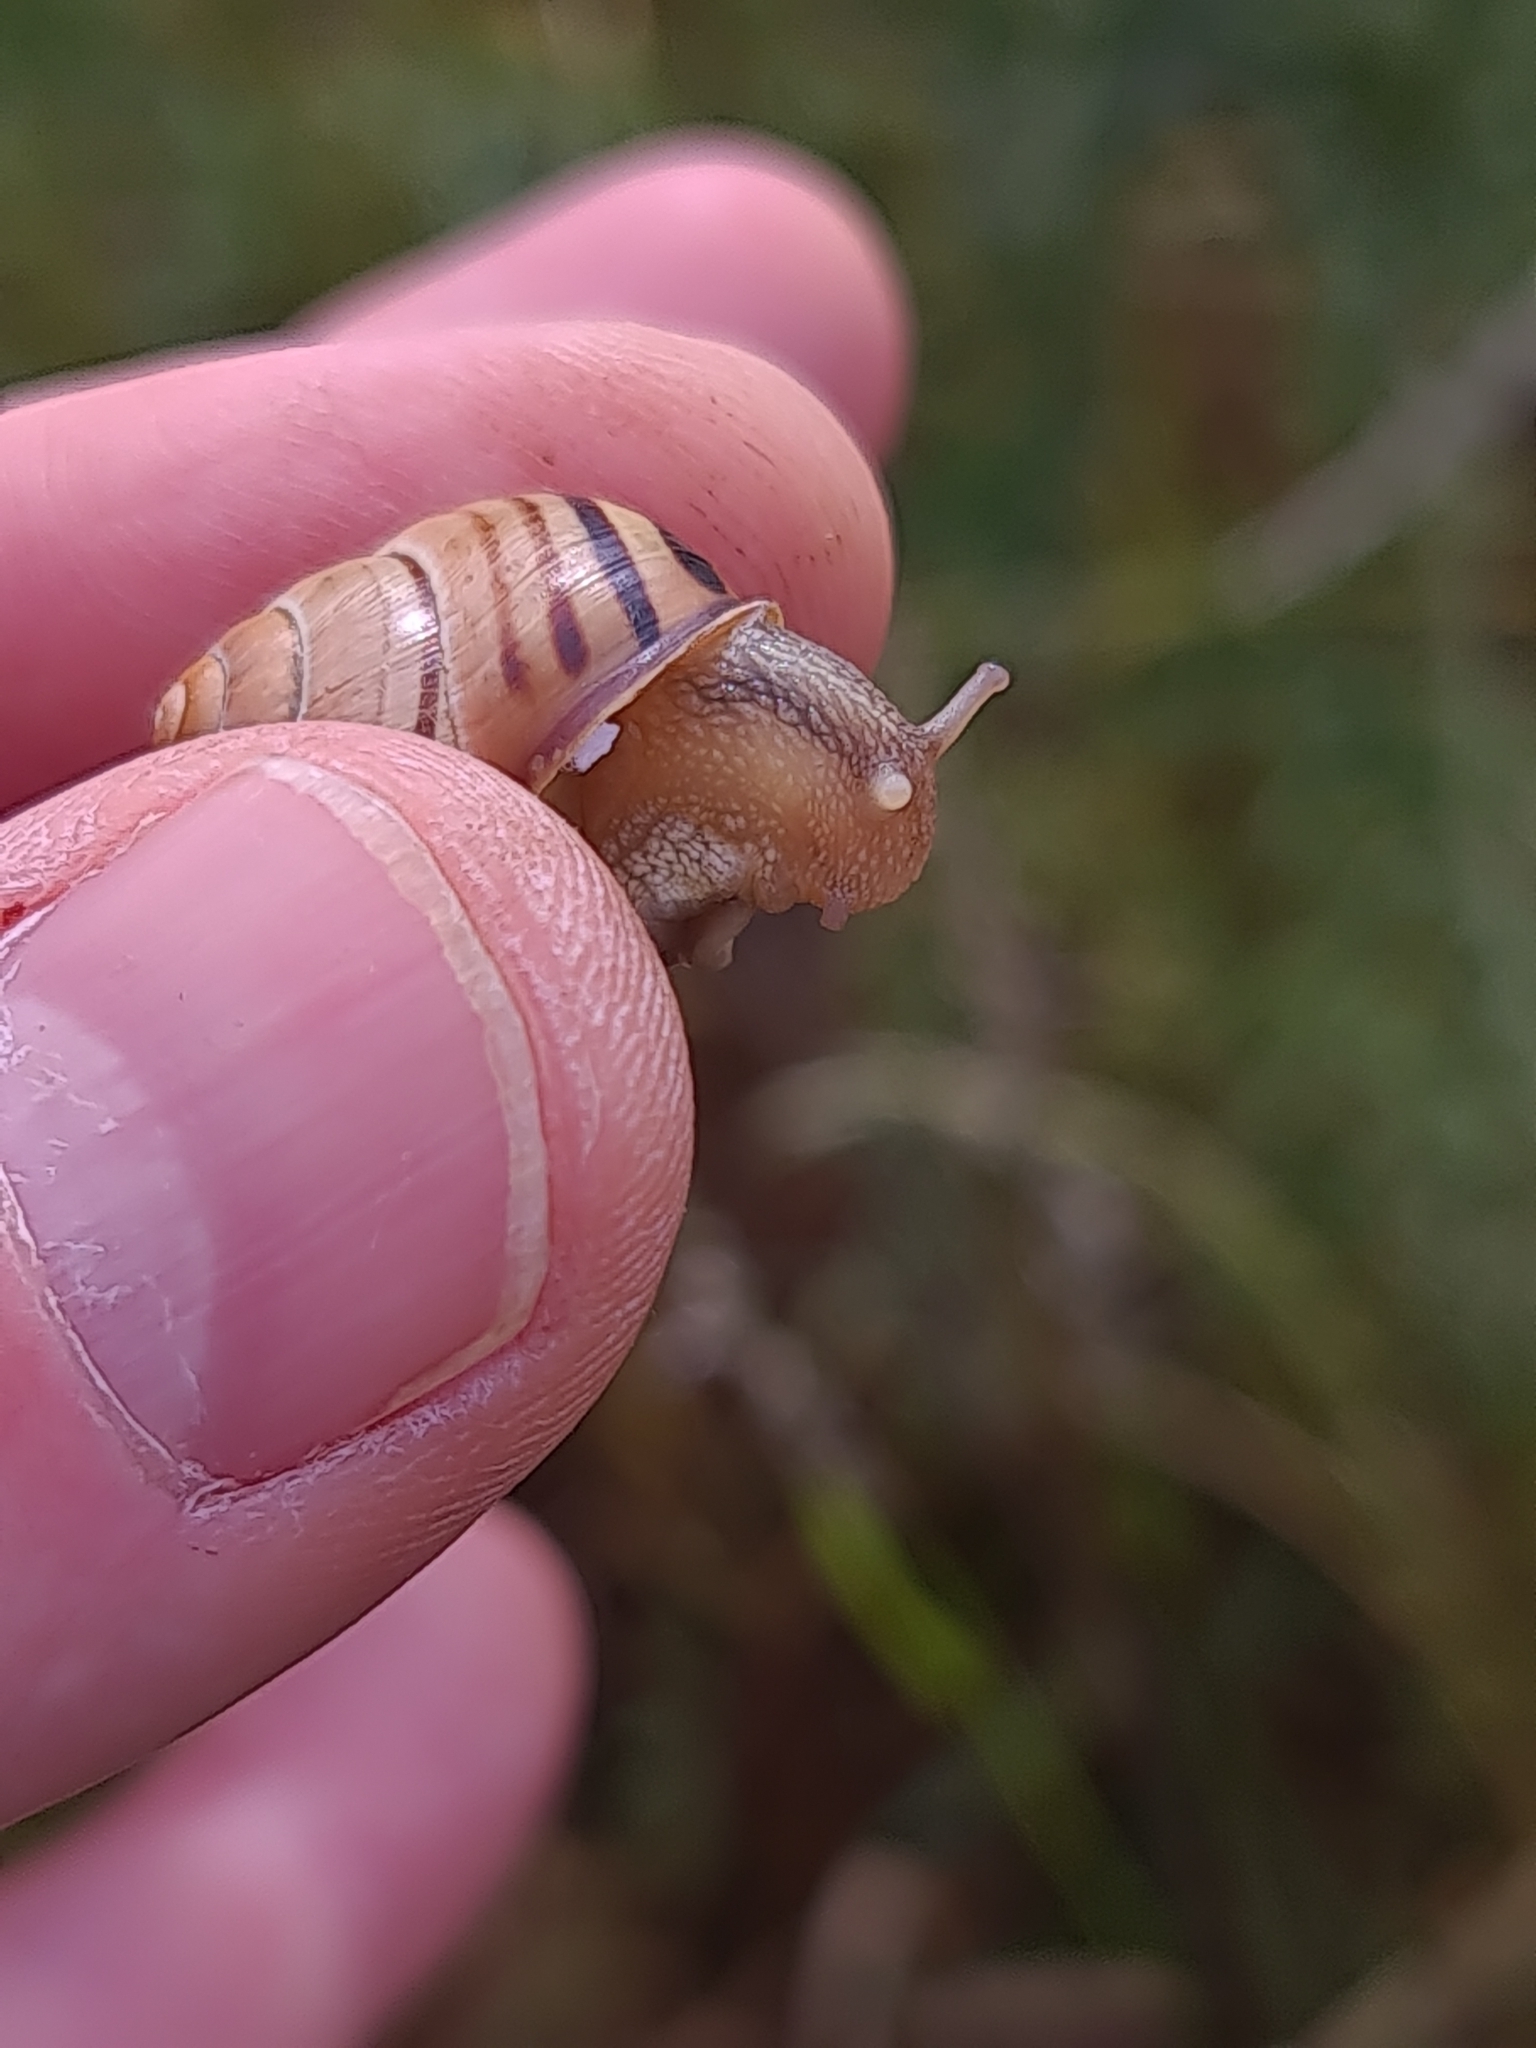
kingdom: Animalia
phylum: Mollusca
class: Gastropoda
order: Stylommatophora
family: Helicidae
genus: Cepaea
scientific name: Cepaea nemoralis
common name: Grovesnail
